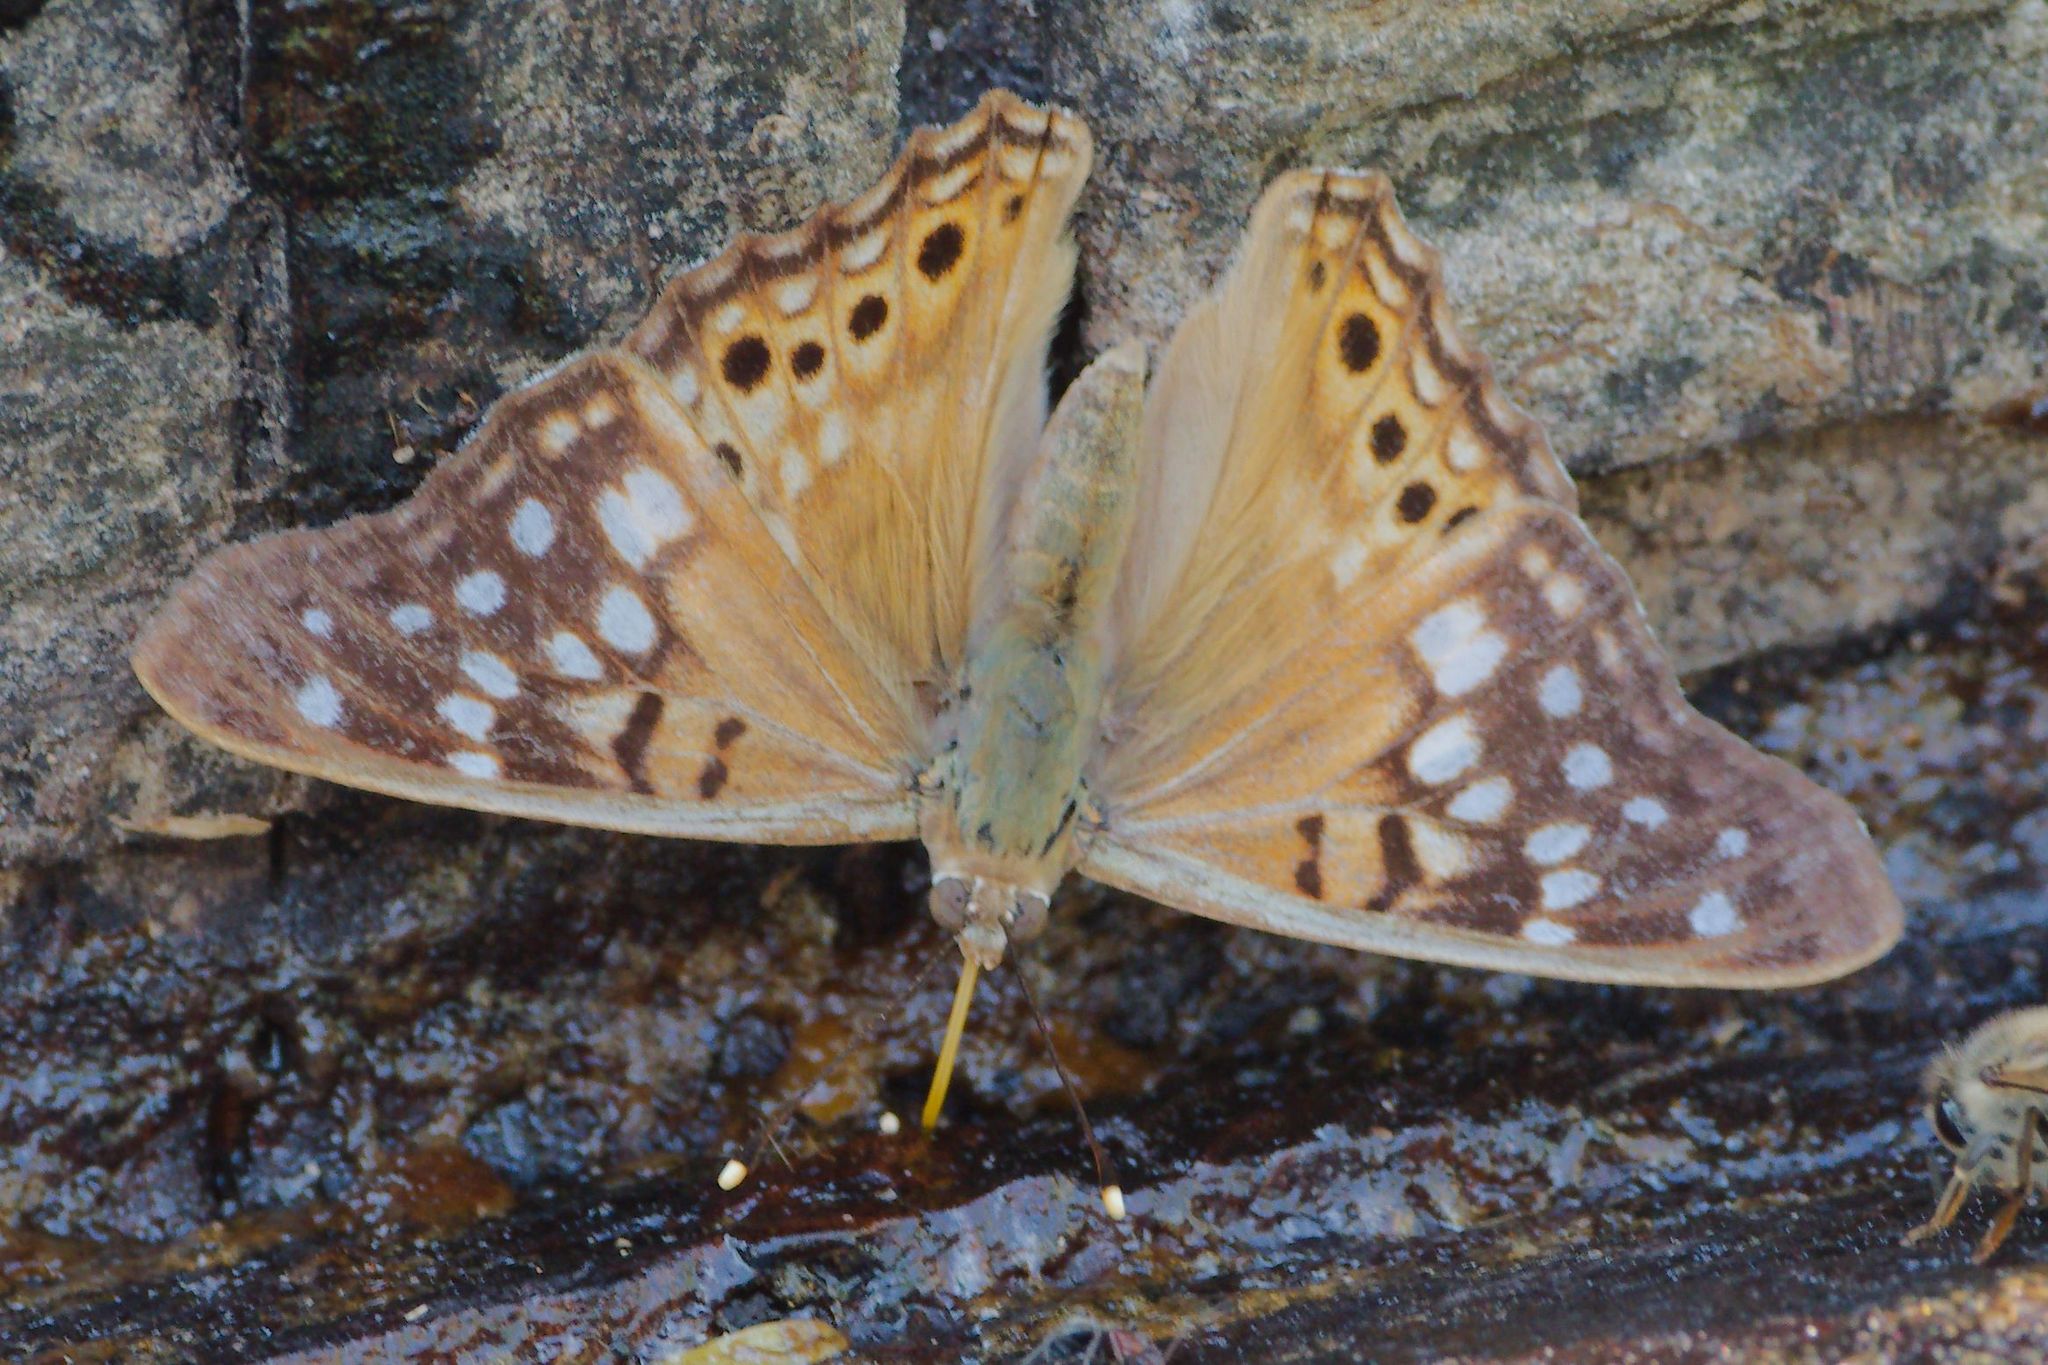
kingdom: Animalia
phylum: Arthropoda
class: Insecta
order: Lepidoptera
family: Nymphalidae
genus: Asterocampa
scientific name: Asterocampa clyton
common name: Tawny emperor
